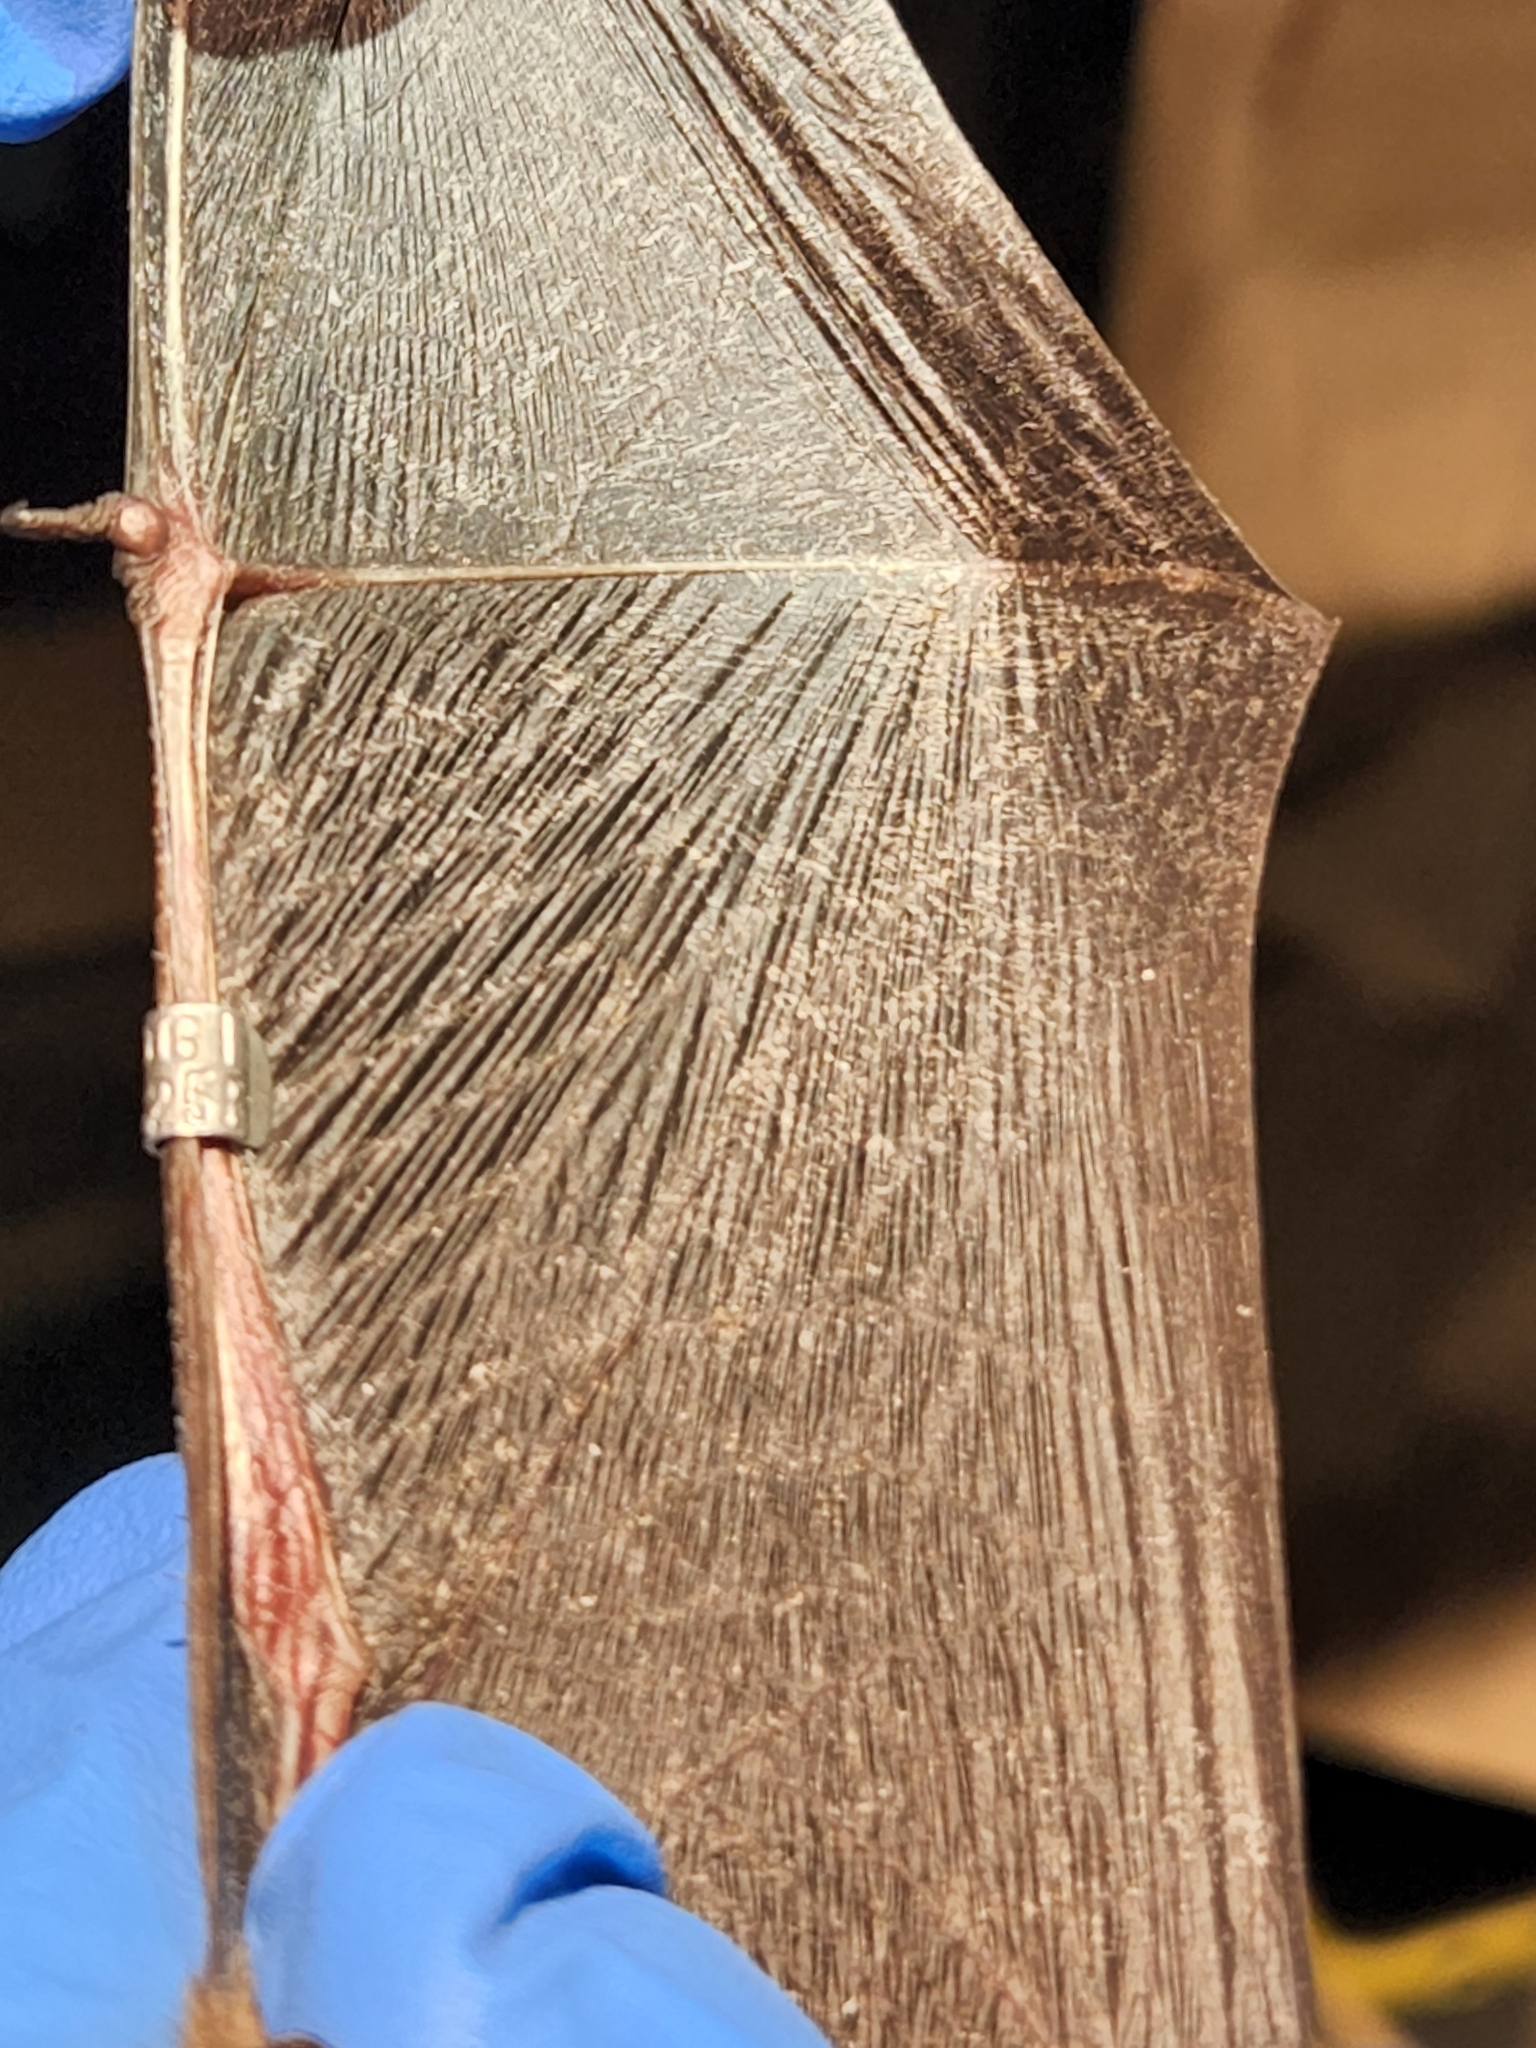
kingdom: Animalia
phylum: Chordata
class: Mammalia
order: Chiroptera
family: Vespertilionidae
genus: Myotis
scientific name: Myotis septentrionalis
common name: Northern myotis
